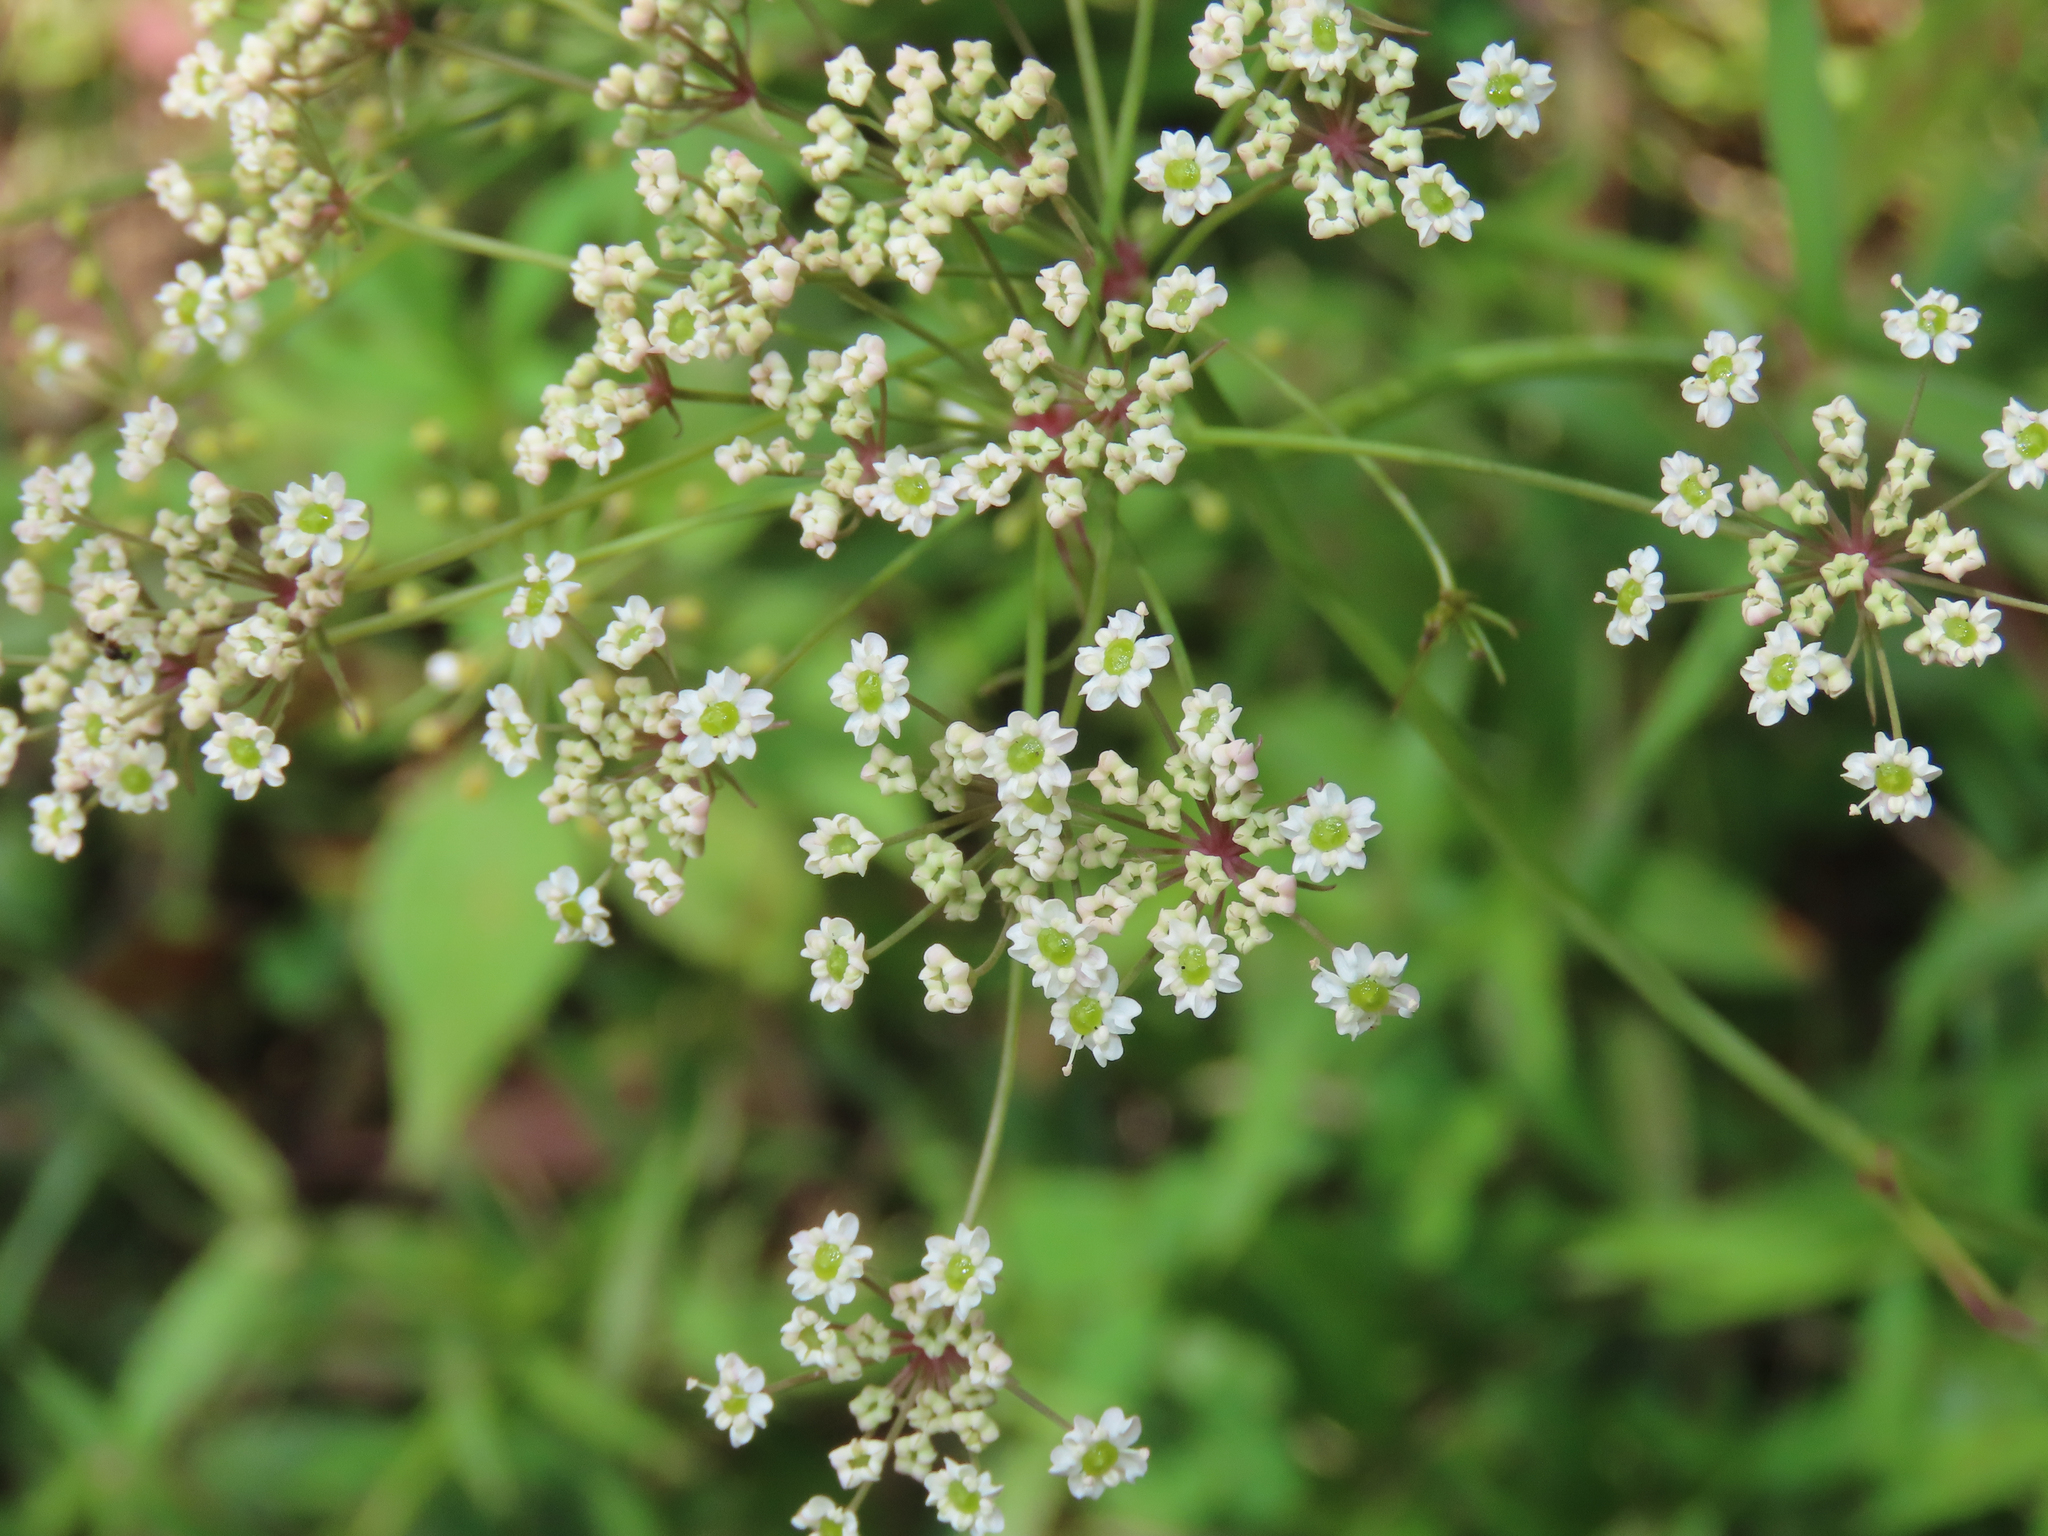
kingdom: Plantae
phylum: Tracheophyta
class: Magnoliopsida
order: Apiales
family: Apiaceae
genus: Oxypolis
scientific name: Oxypolis rigidior
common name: Cowbane
